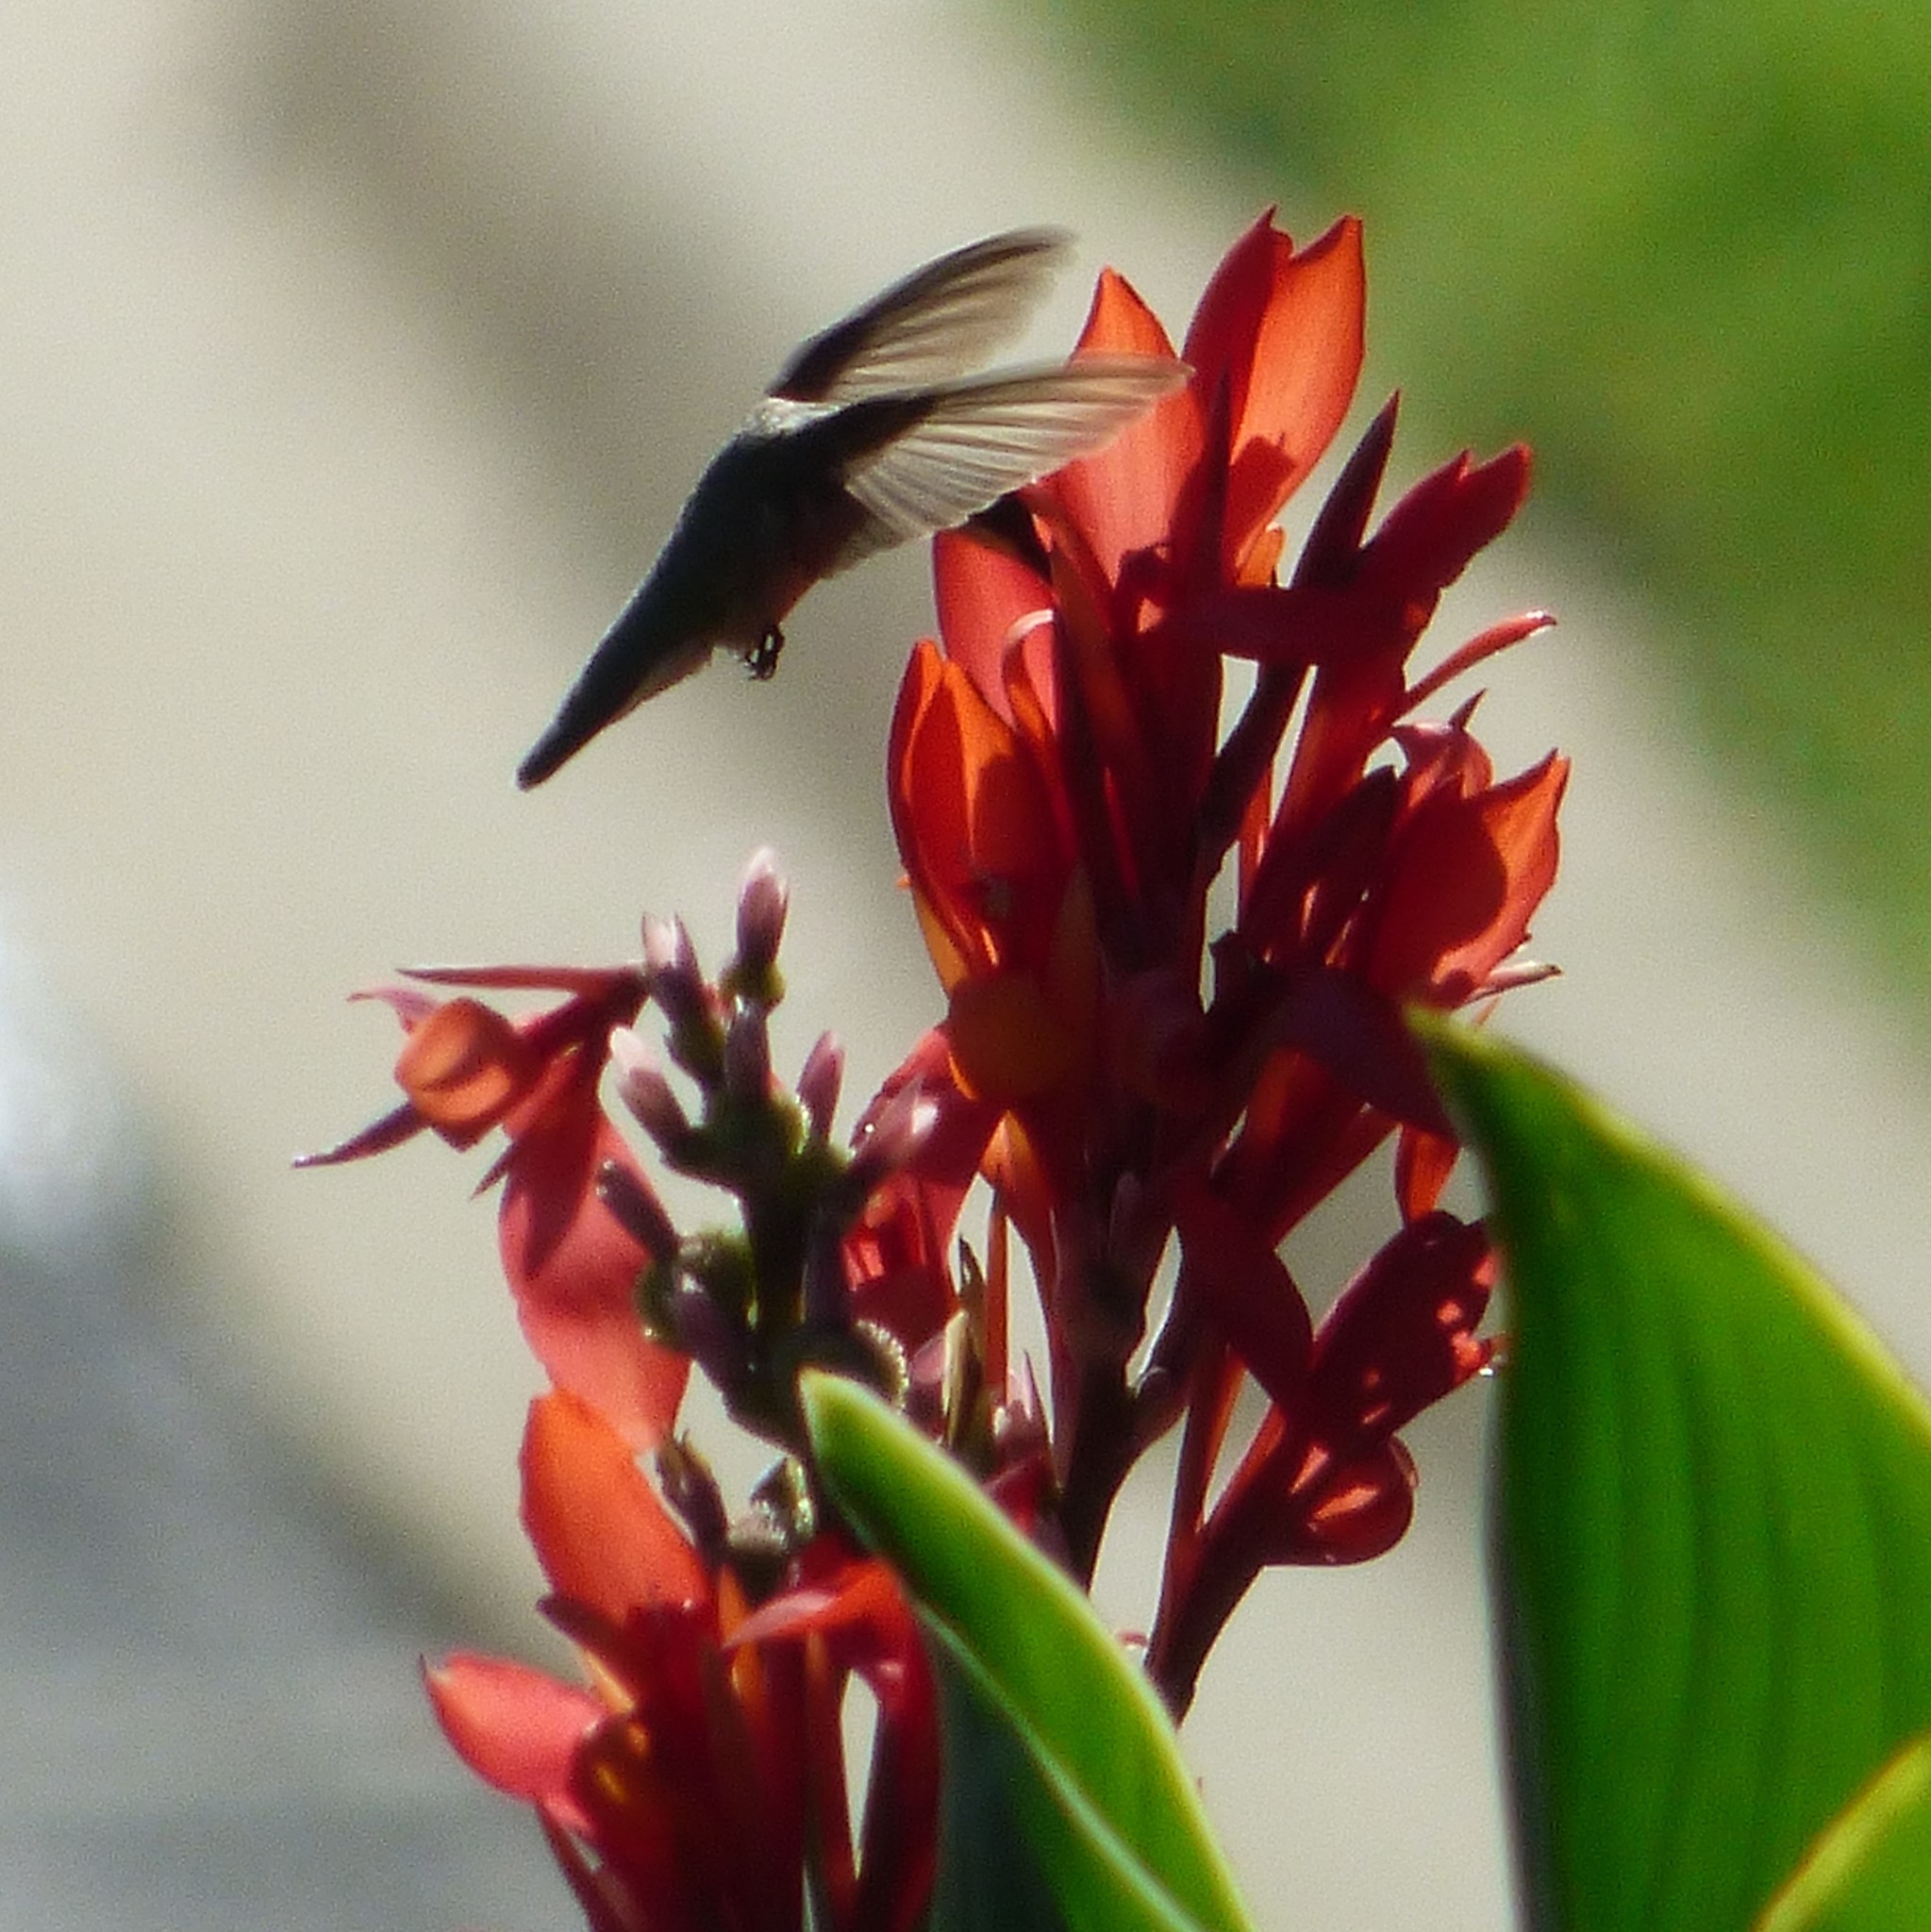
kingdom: Animalia
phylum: Chordata
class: Aves
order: Apodiformes
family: Trochilidae
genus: Archilochus
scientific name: Archilochus colubris
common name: Ruby-throated hummingbird
